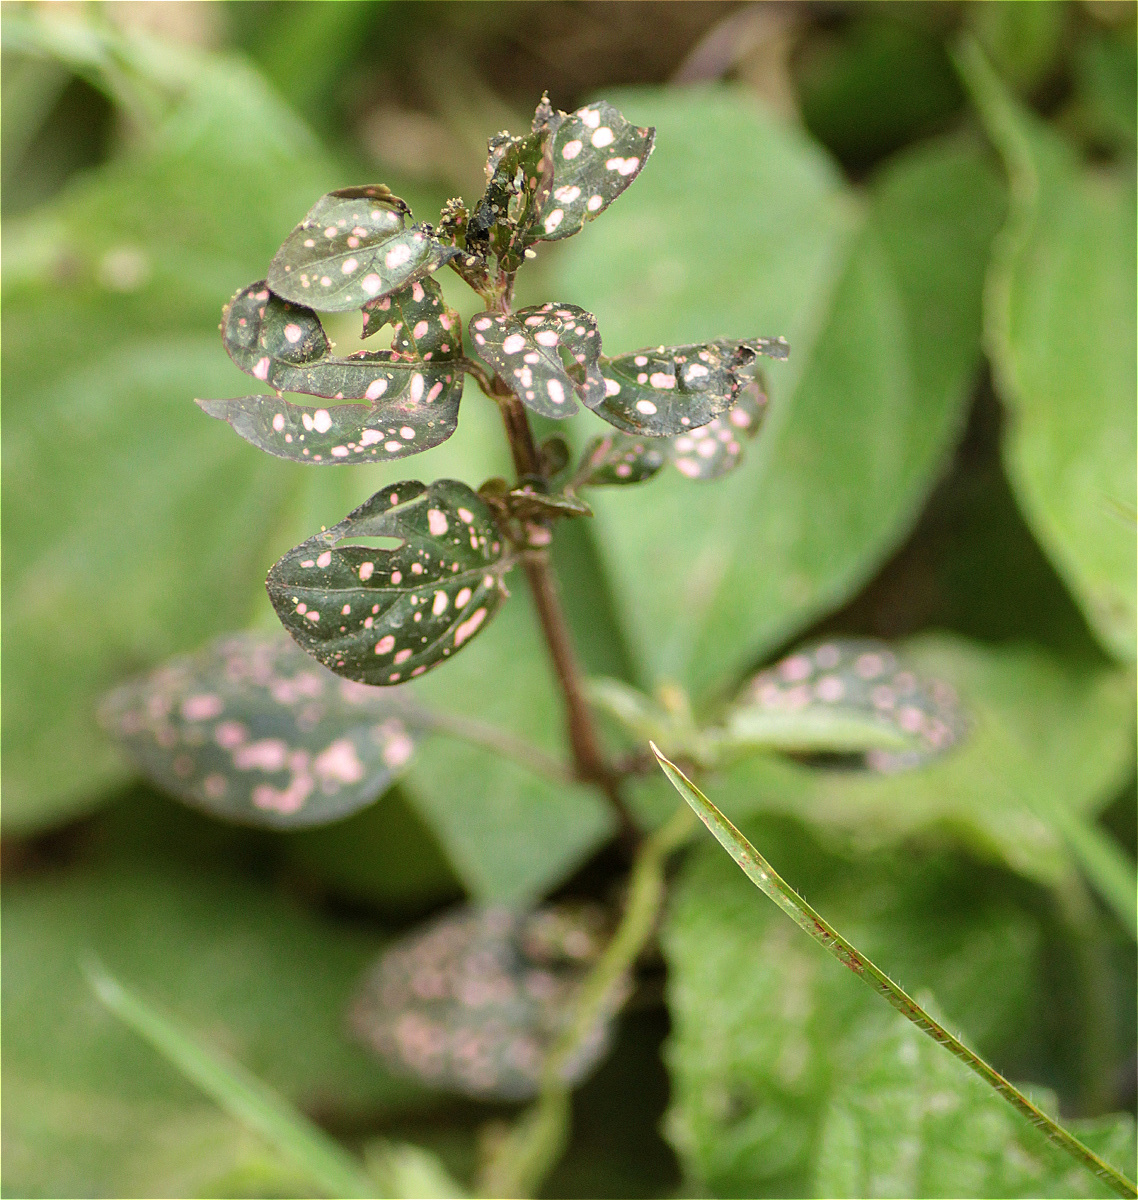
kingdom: Plantae
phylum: Tracheophyta
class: Magnoliopsida
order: Lamiales
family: Acanthaceae
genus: Hypoestes
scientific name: Hypoestes phyllostachya
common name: Polkadot-plant
